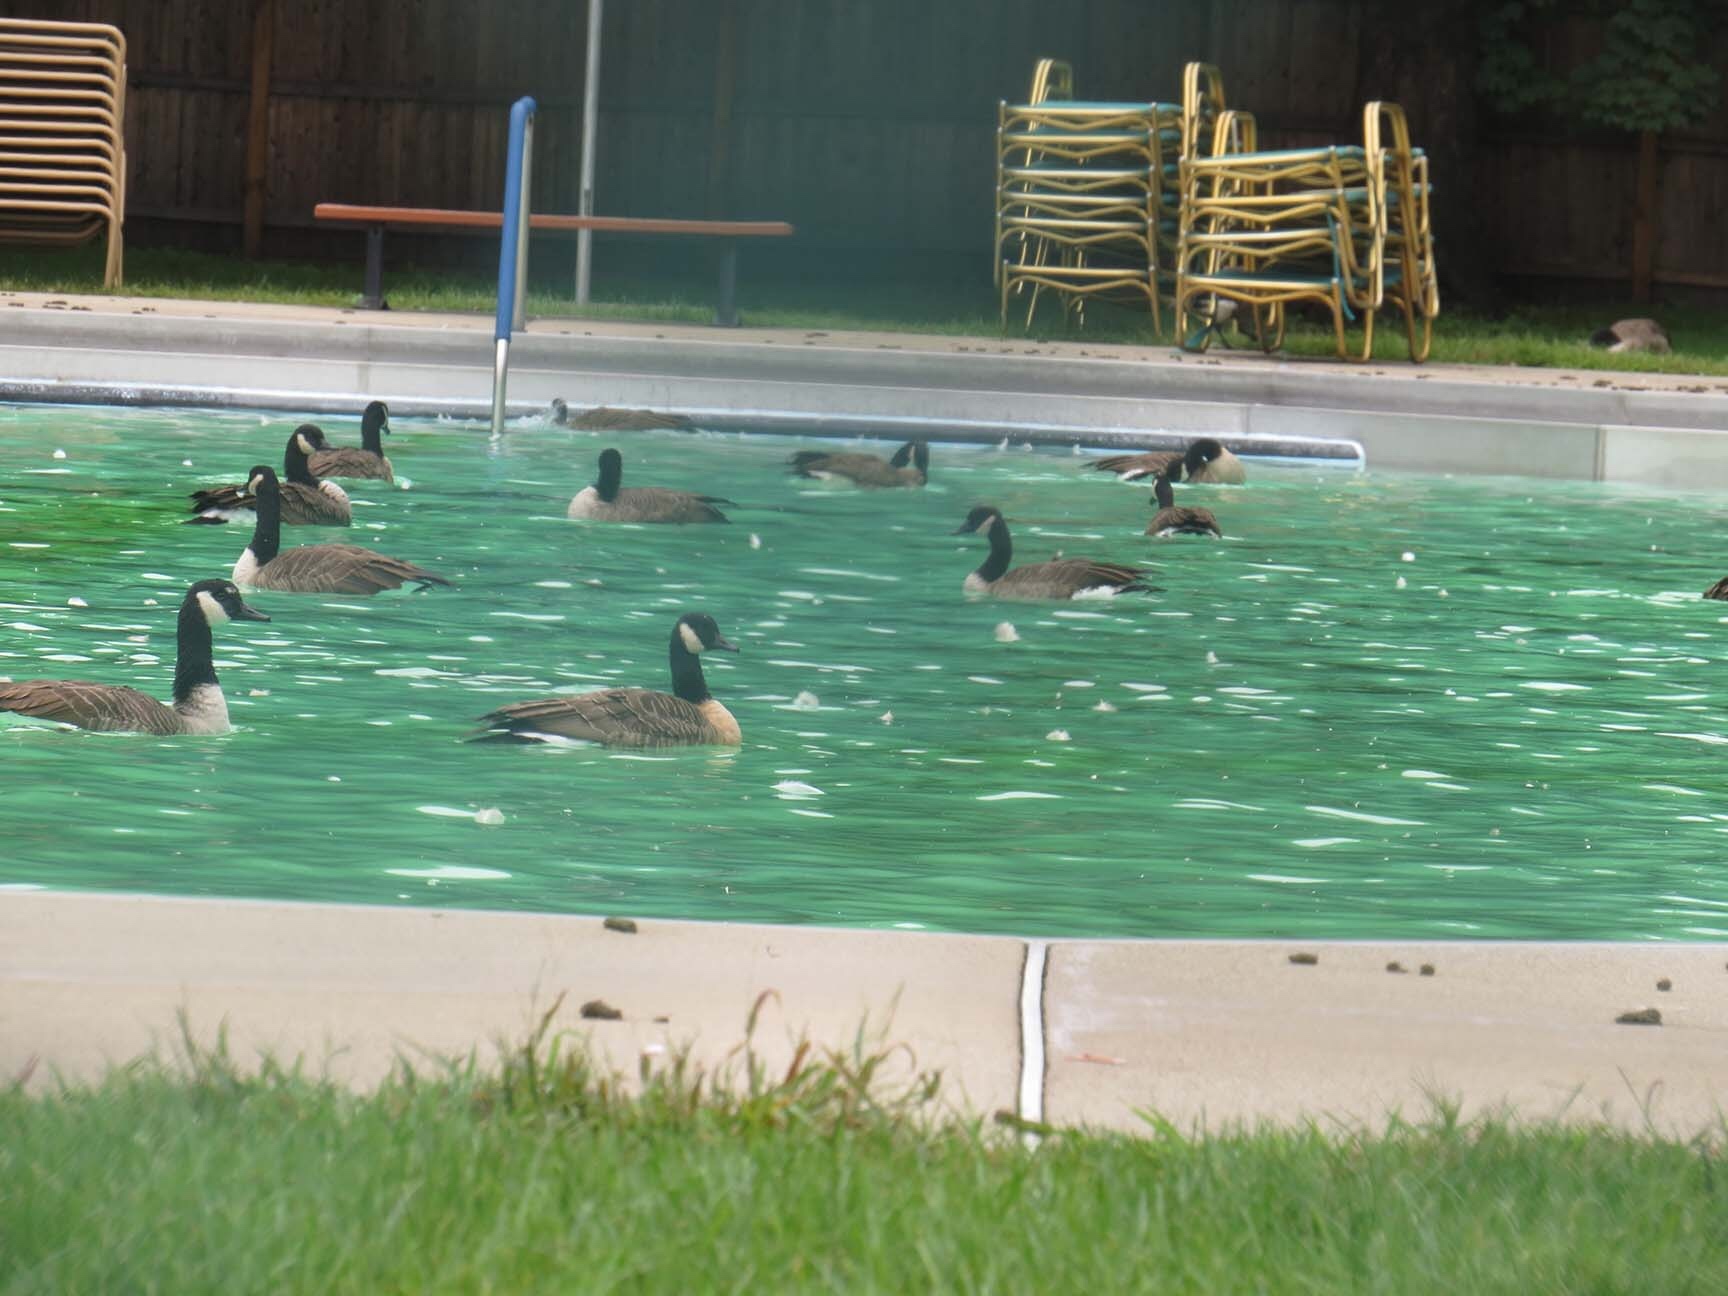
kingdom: Animalia
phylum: Chordata
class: Aves
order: Anseriformes
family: Anatidae
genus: Branta
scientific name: Branta canadensis
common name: Canada goose
